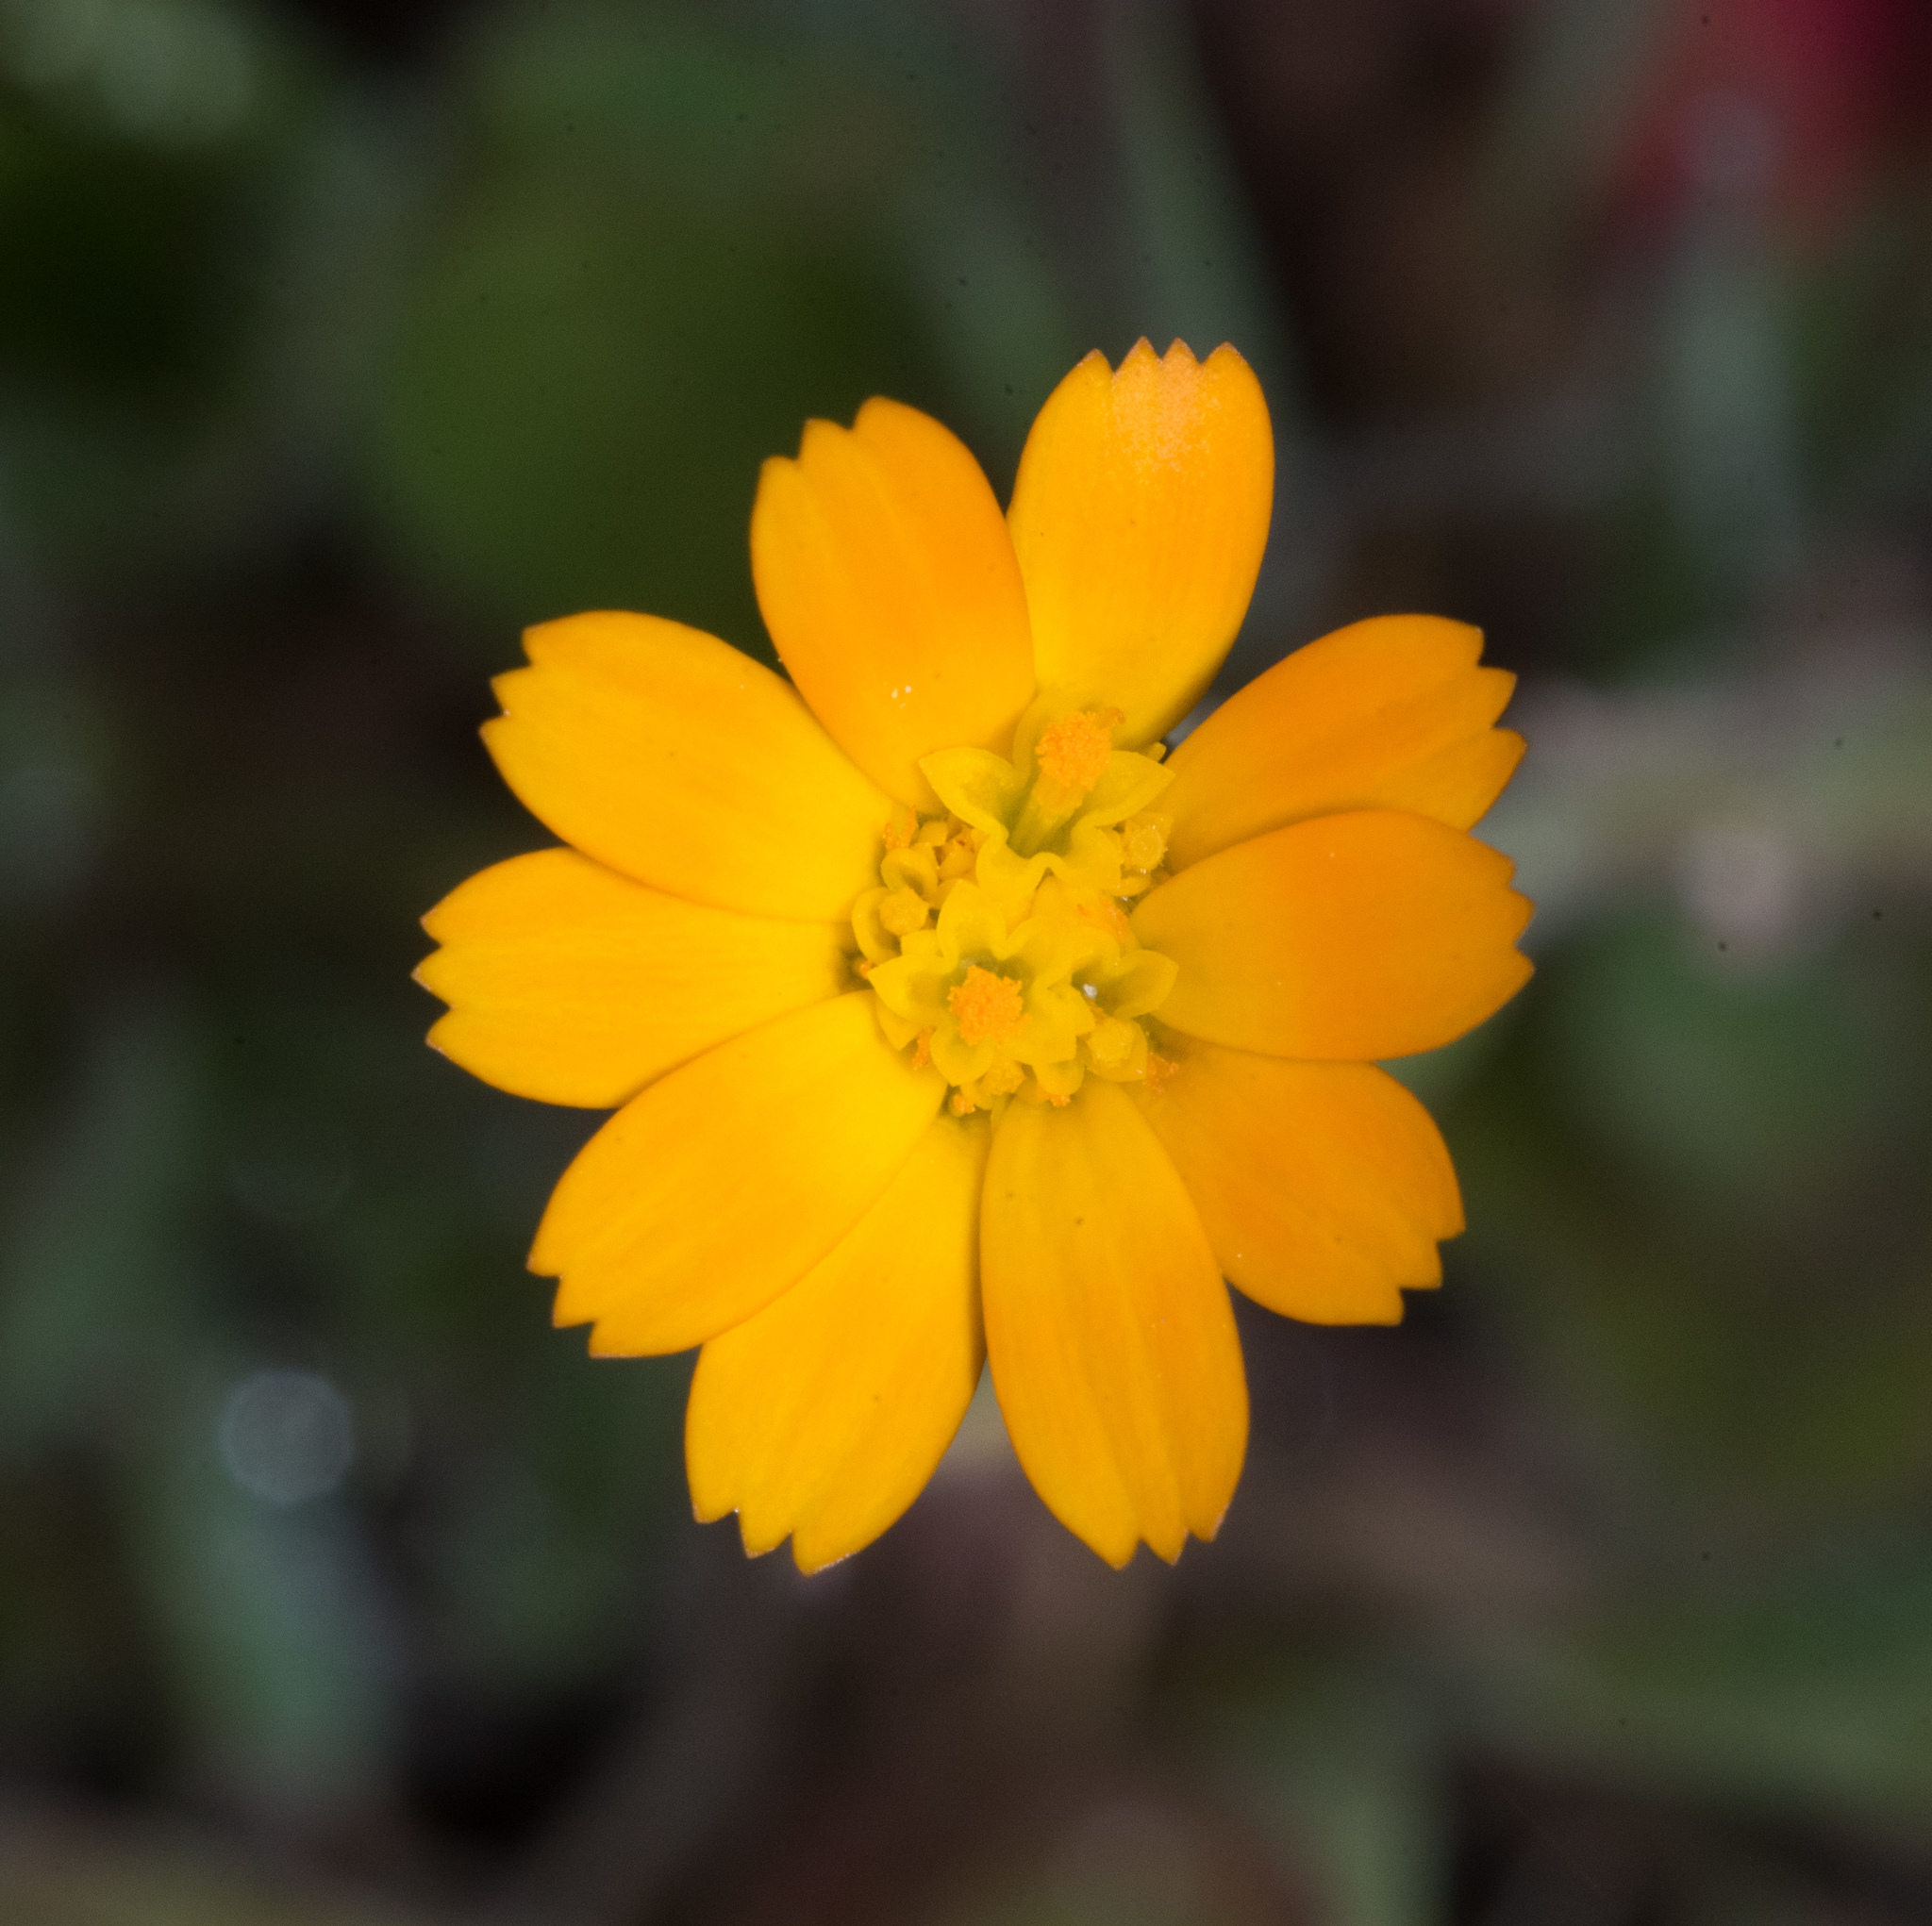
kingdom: Plantae
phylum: Tracheophyta
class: Magnoliopsida
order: Asterales
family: Asteraceae
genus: Calendula
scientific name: Calendula arvensis
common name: Field marigold
